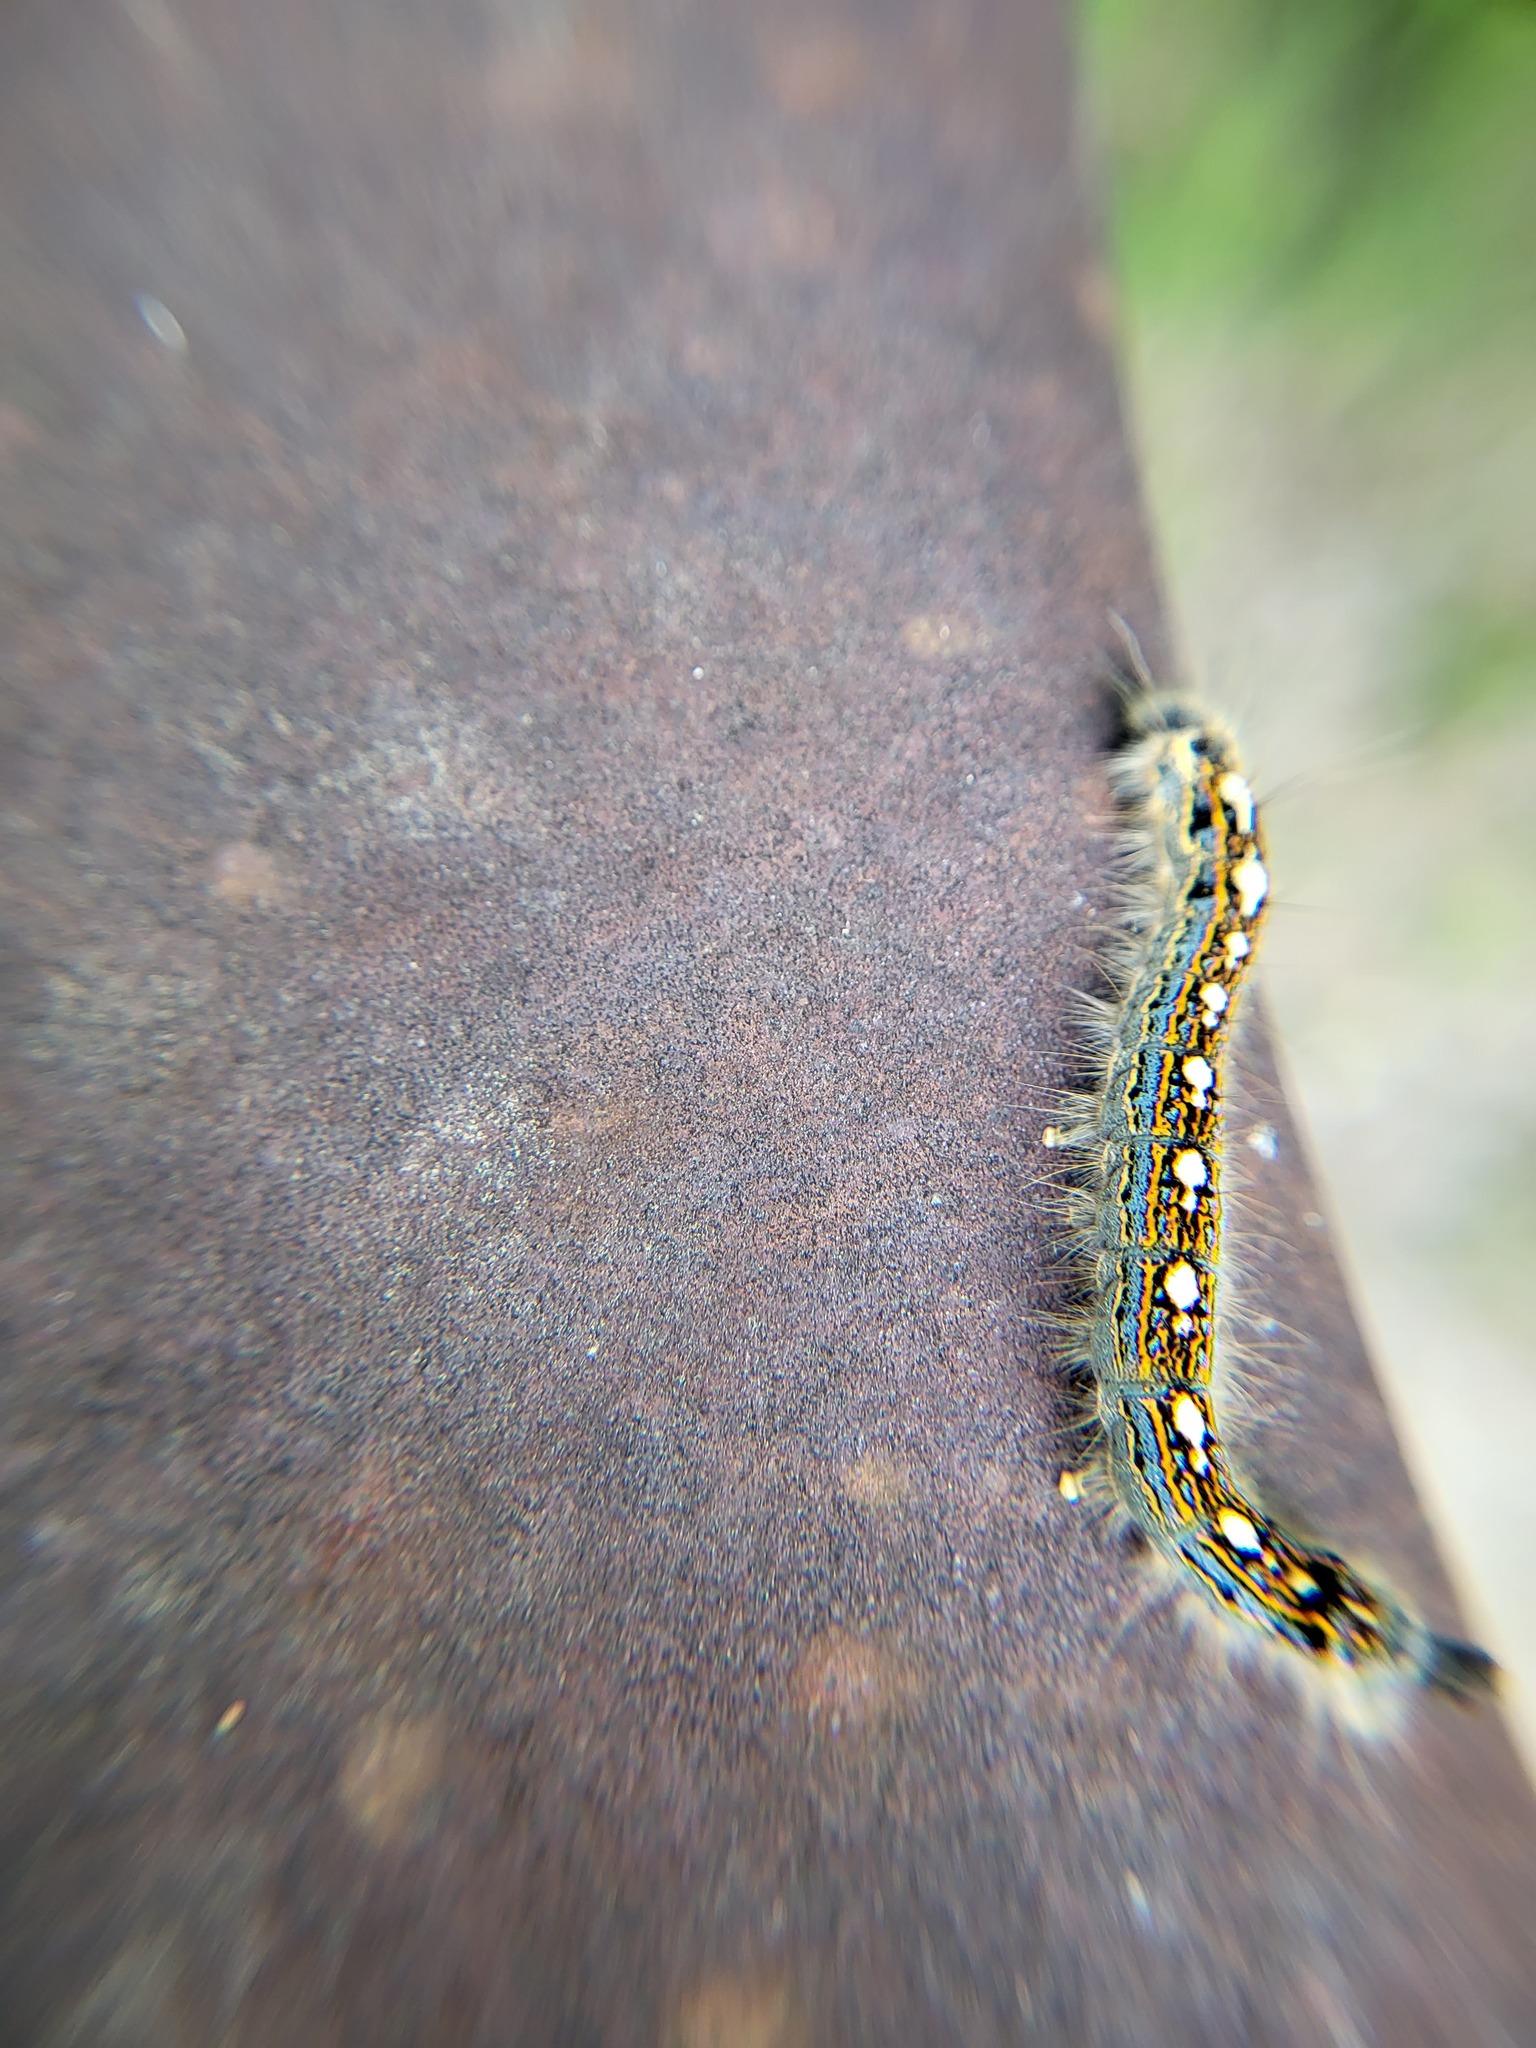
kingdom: Animalia
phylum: Arthropoda
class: Insecta
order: Lepidoptera
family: Lasiocampidae
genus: Malacosoma
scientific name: Malacosoma disstria
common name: Forest tent caterpillar
